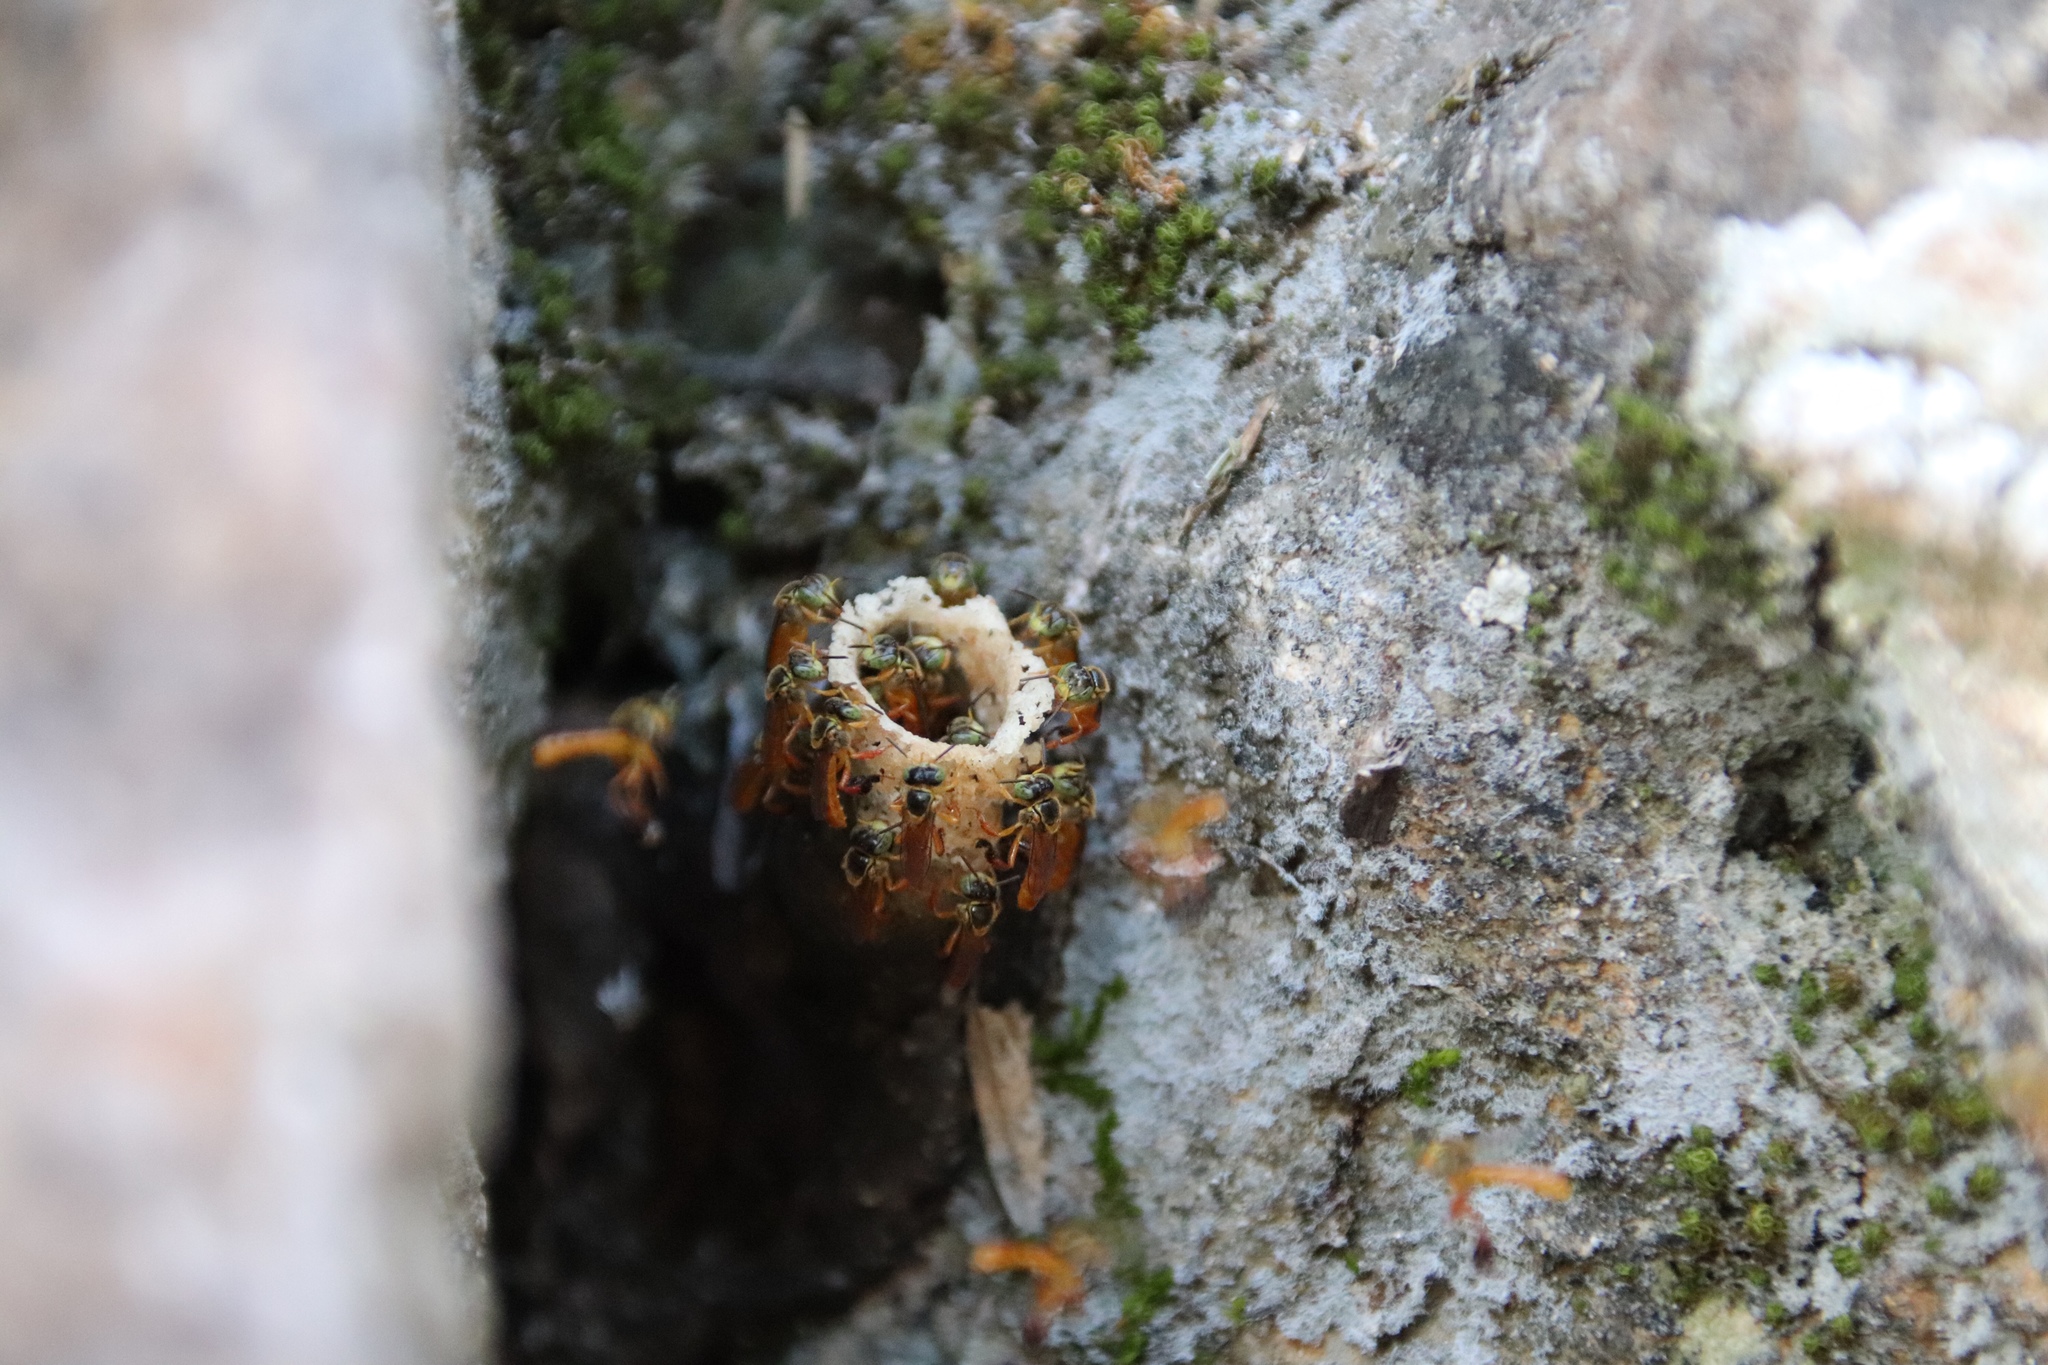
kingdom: Animalia
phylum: Arthropoda
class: Insecta
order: Hymenoptera
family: Apidae
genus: Tetragonisca
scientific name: Tetragonisca angustula
